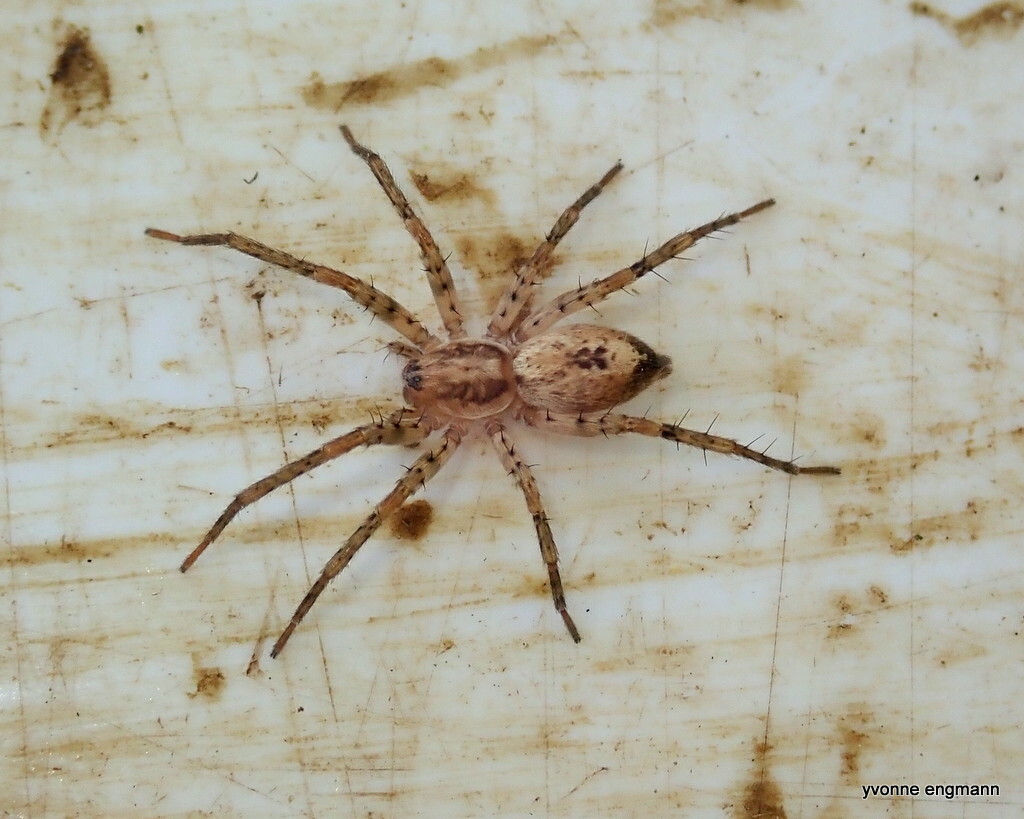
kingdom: Animalia
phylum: Arthropoda
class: Arachnida
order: Araneae
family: Anyphaenidae
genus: Anyphaena
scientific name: Anyphaena accentuata
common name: Buzzing spider
